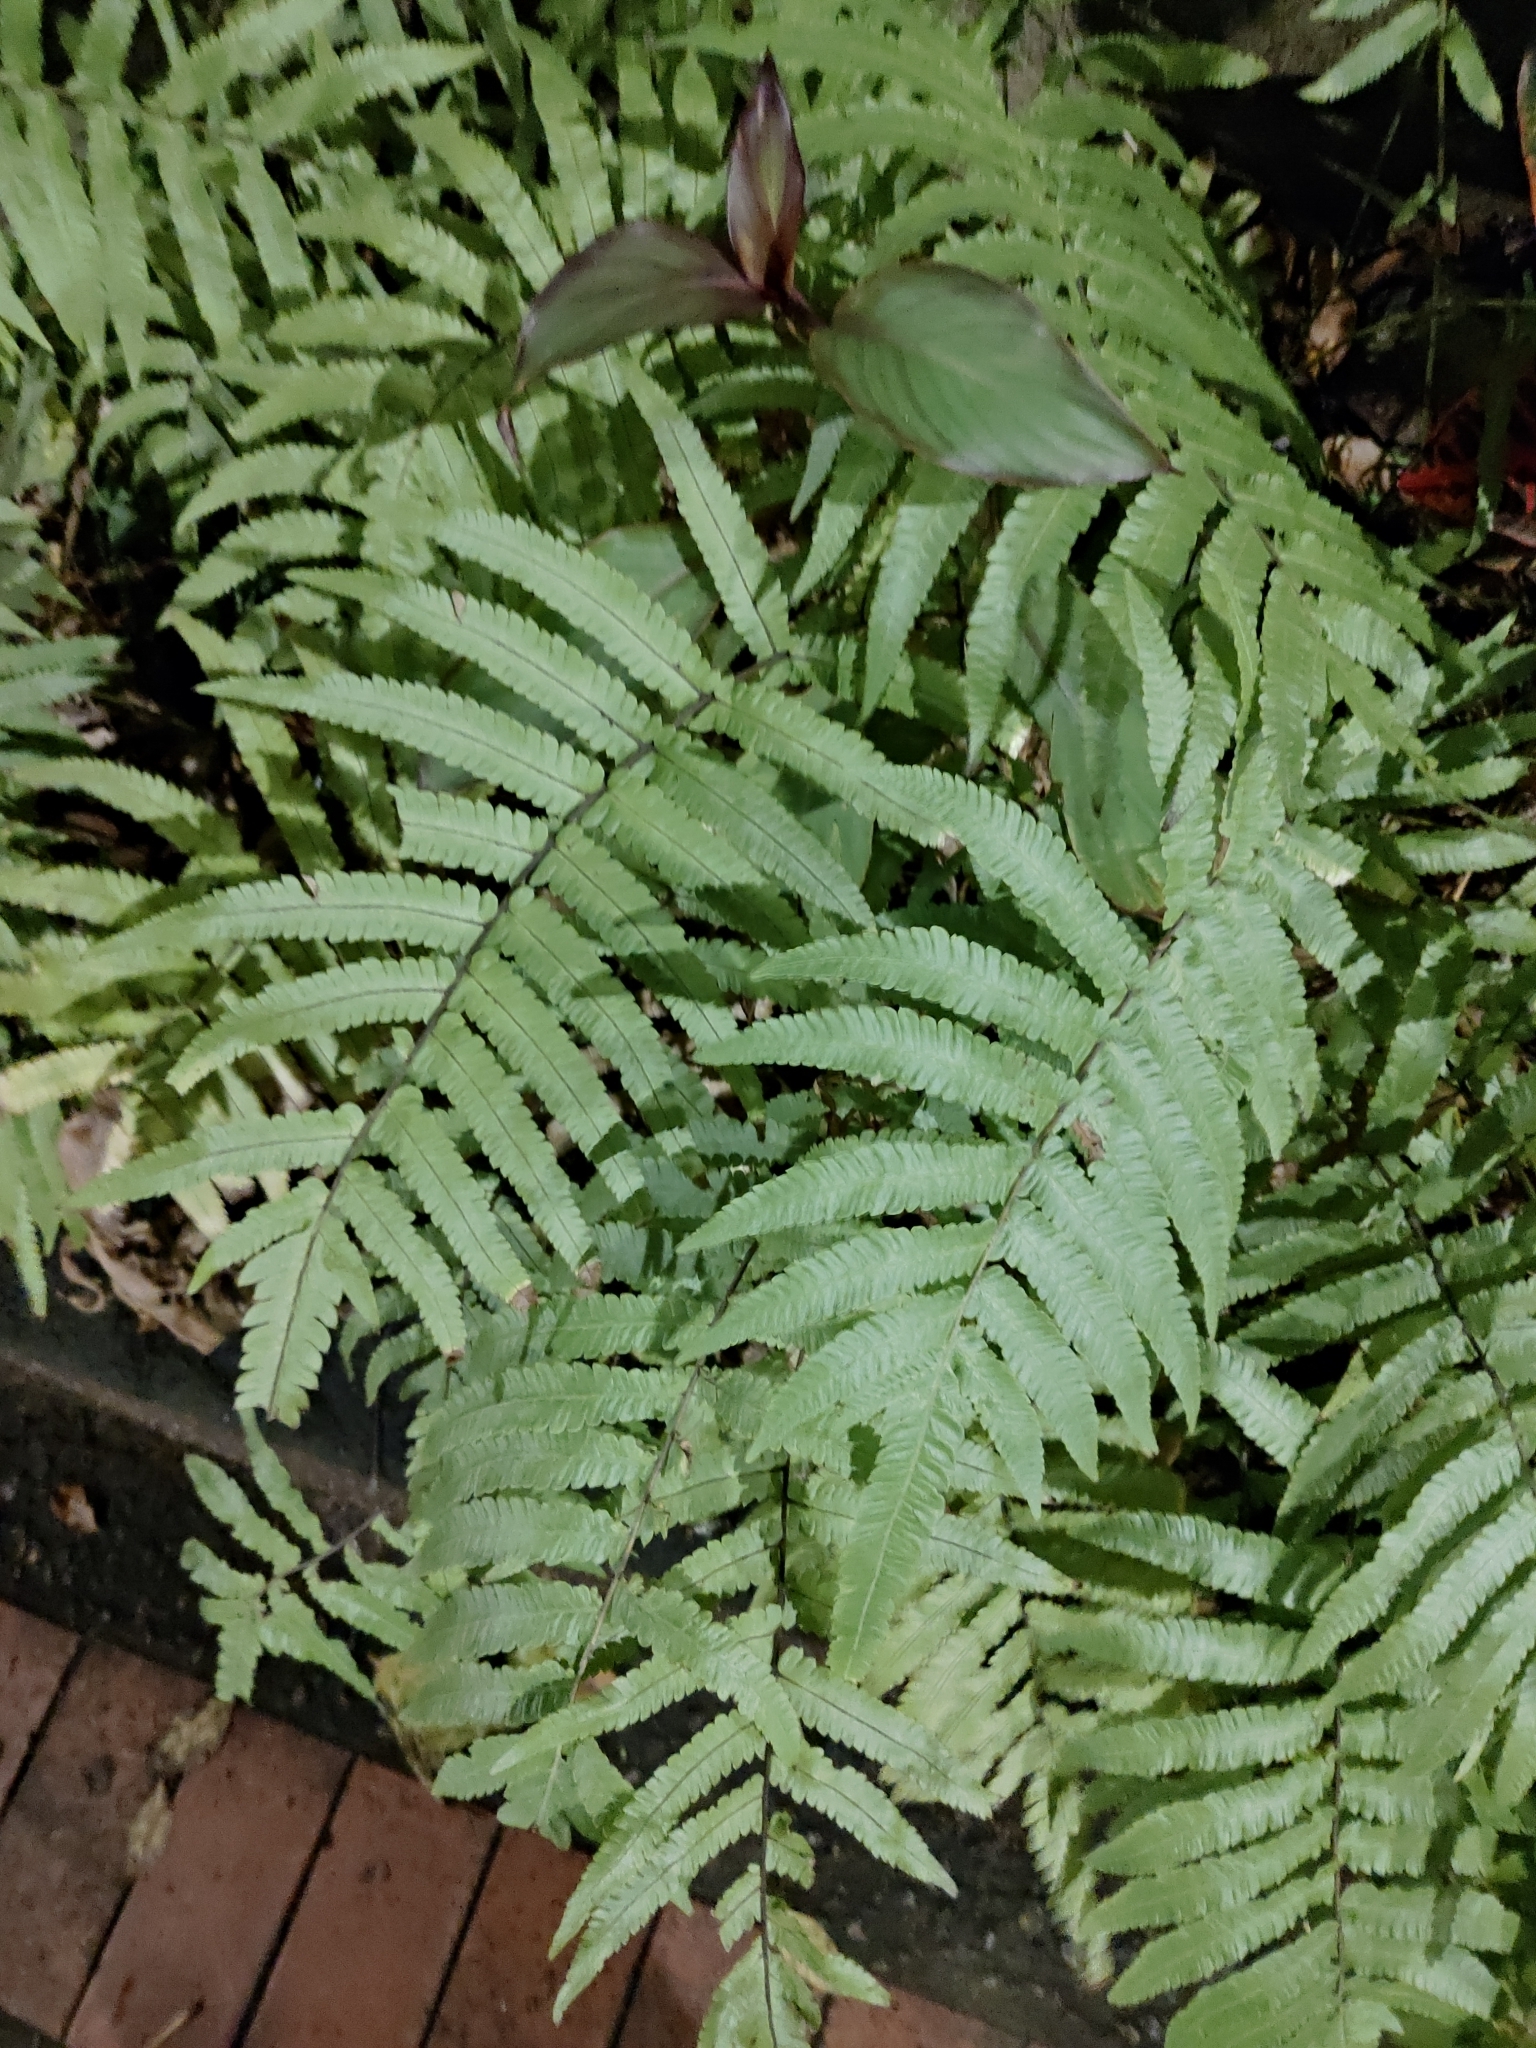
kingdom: Plantae
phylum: Tracheophyta
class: Polypodiopsida
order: Polypodiales
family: Thelypteridaceae
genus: Christella
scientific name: Christella acuminata
